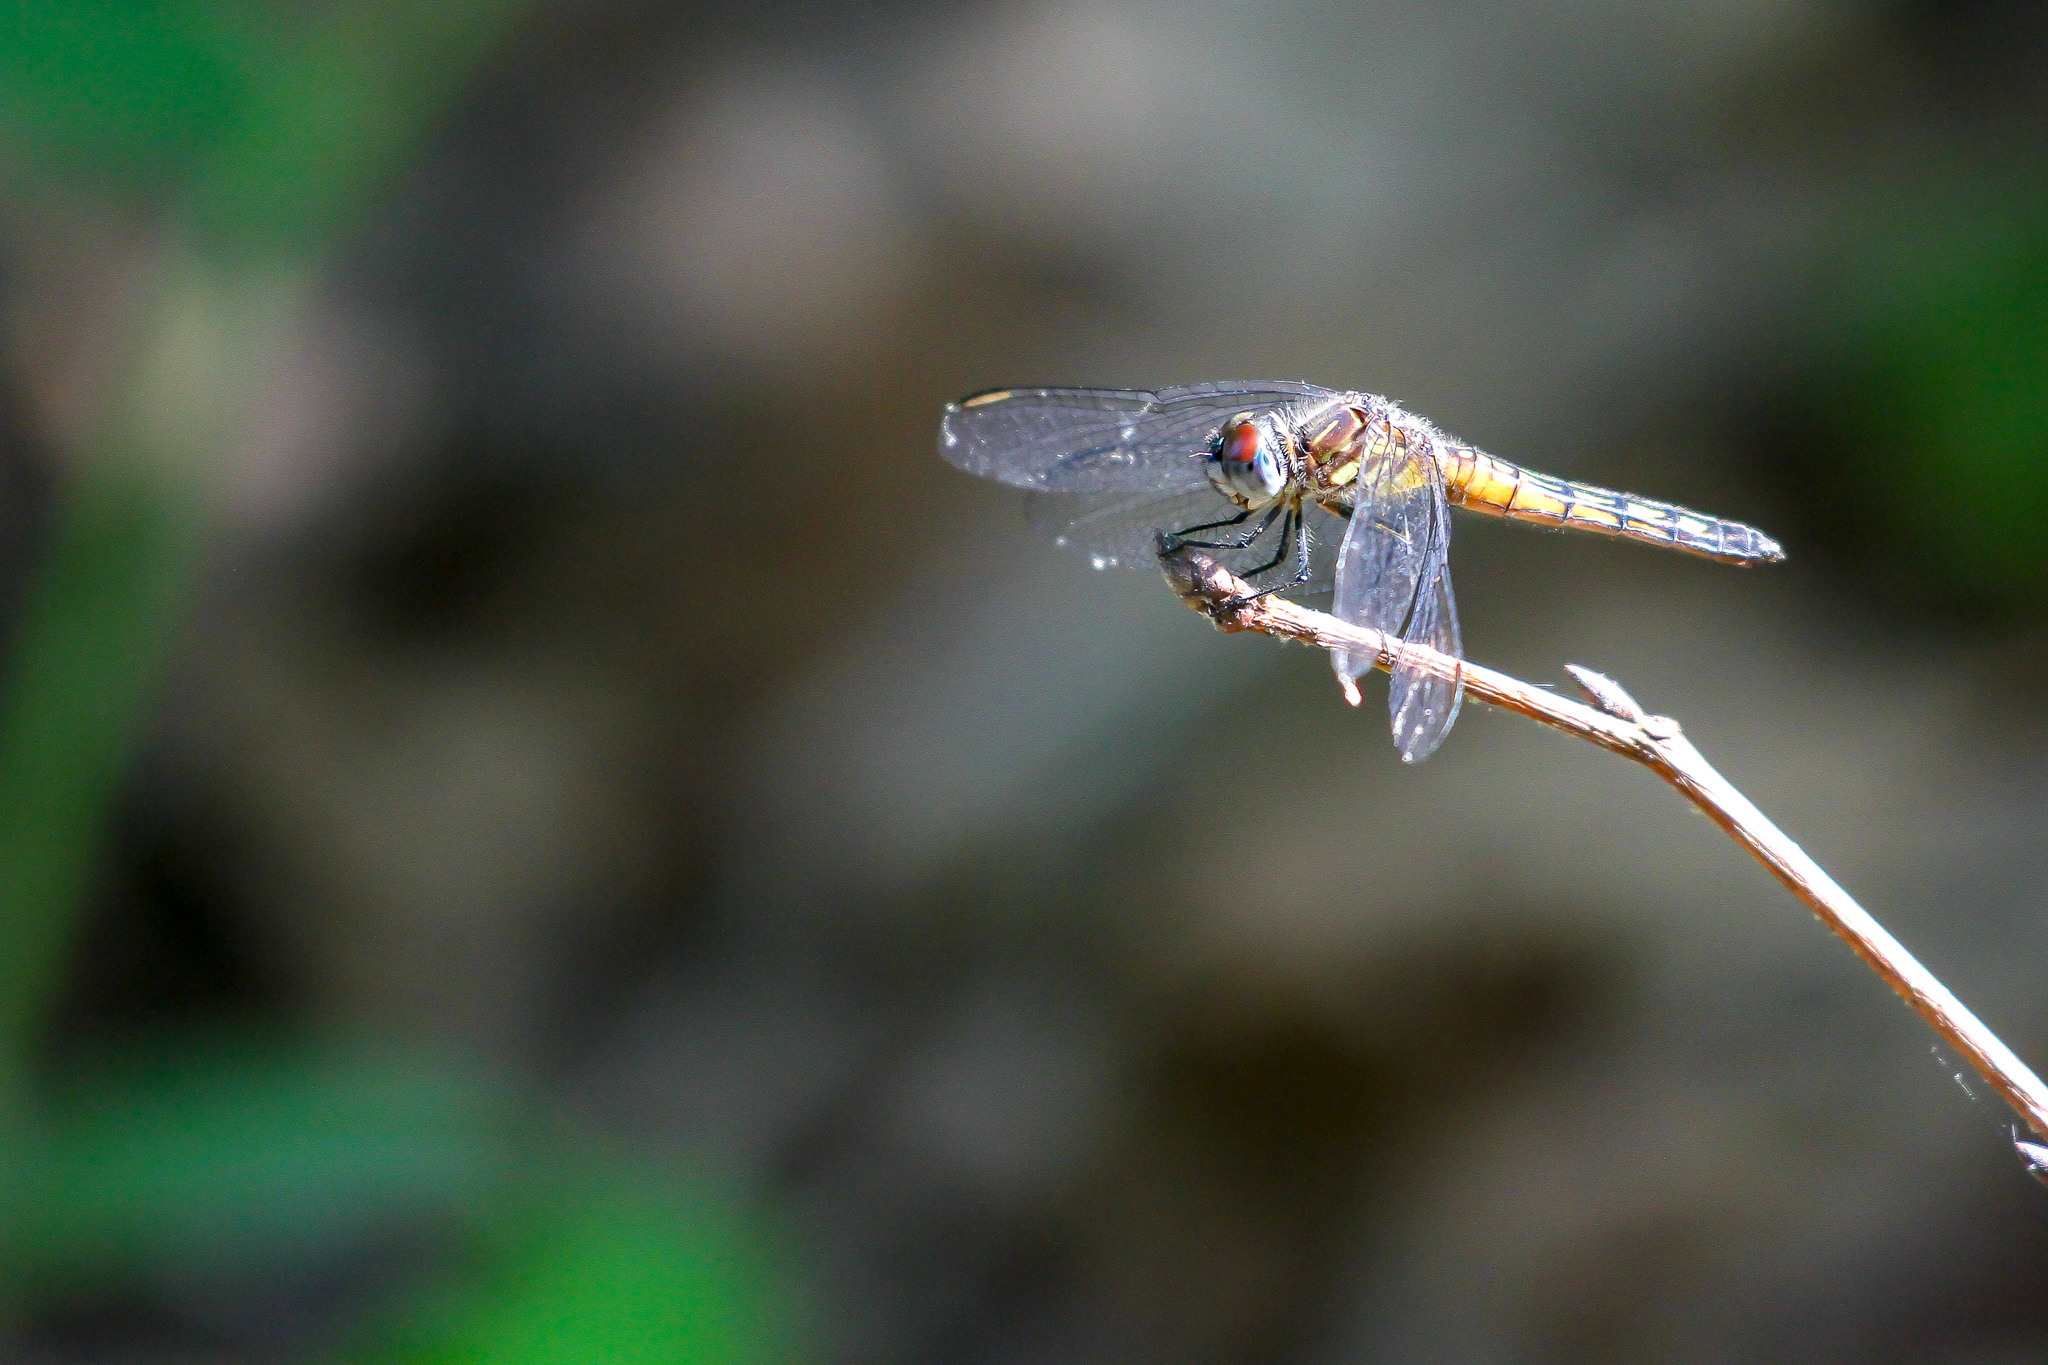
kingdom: Animalia
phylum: Arthropoda
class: Insecta
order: Odonata
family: Libellulidae
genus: Pachydiplax
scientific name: Pachydiplax longipennis
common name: Blue dasher
